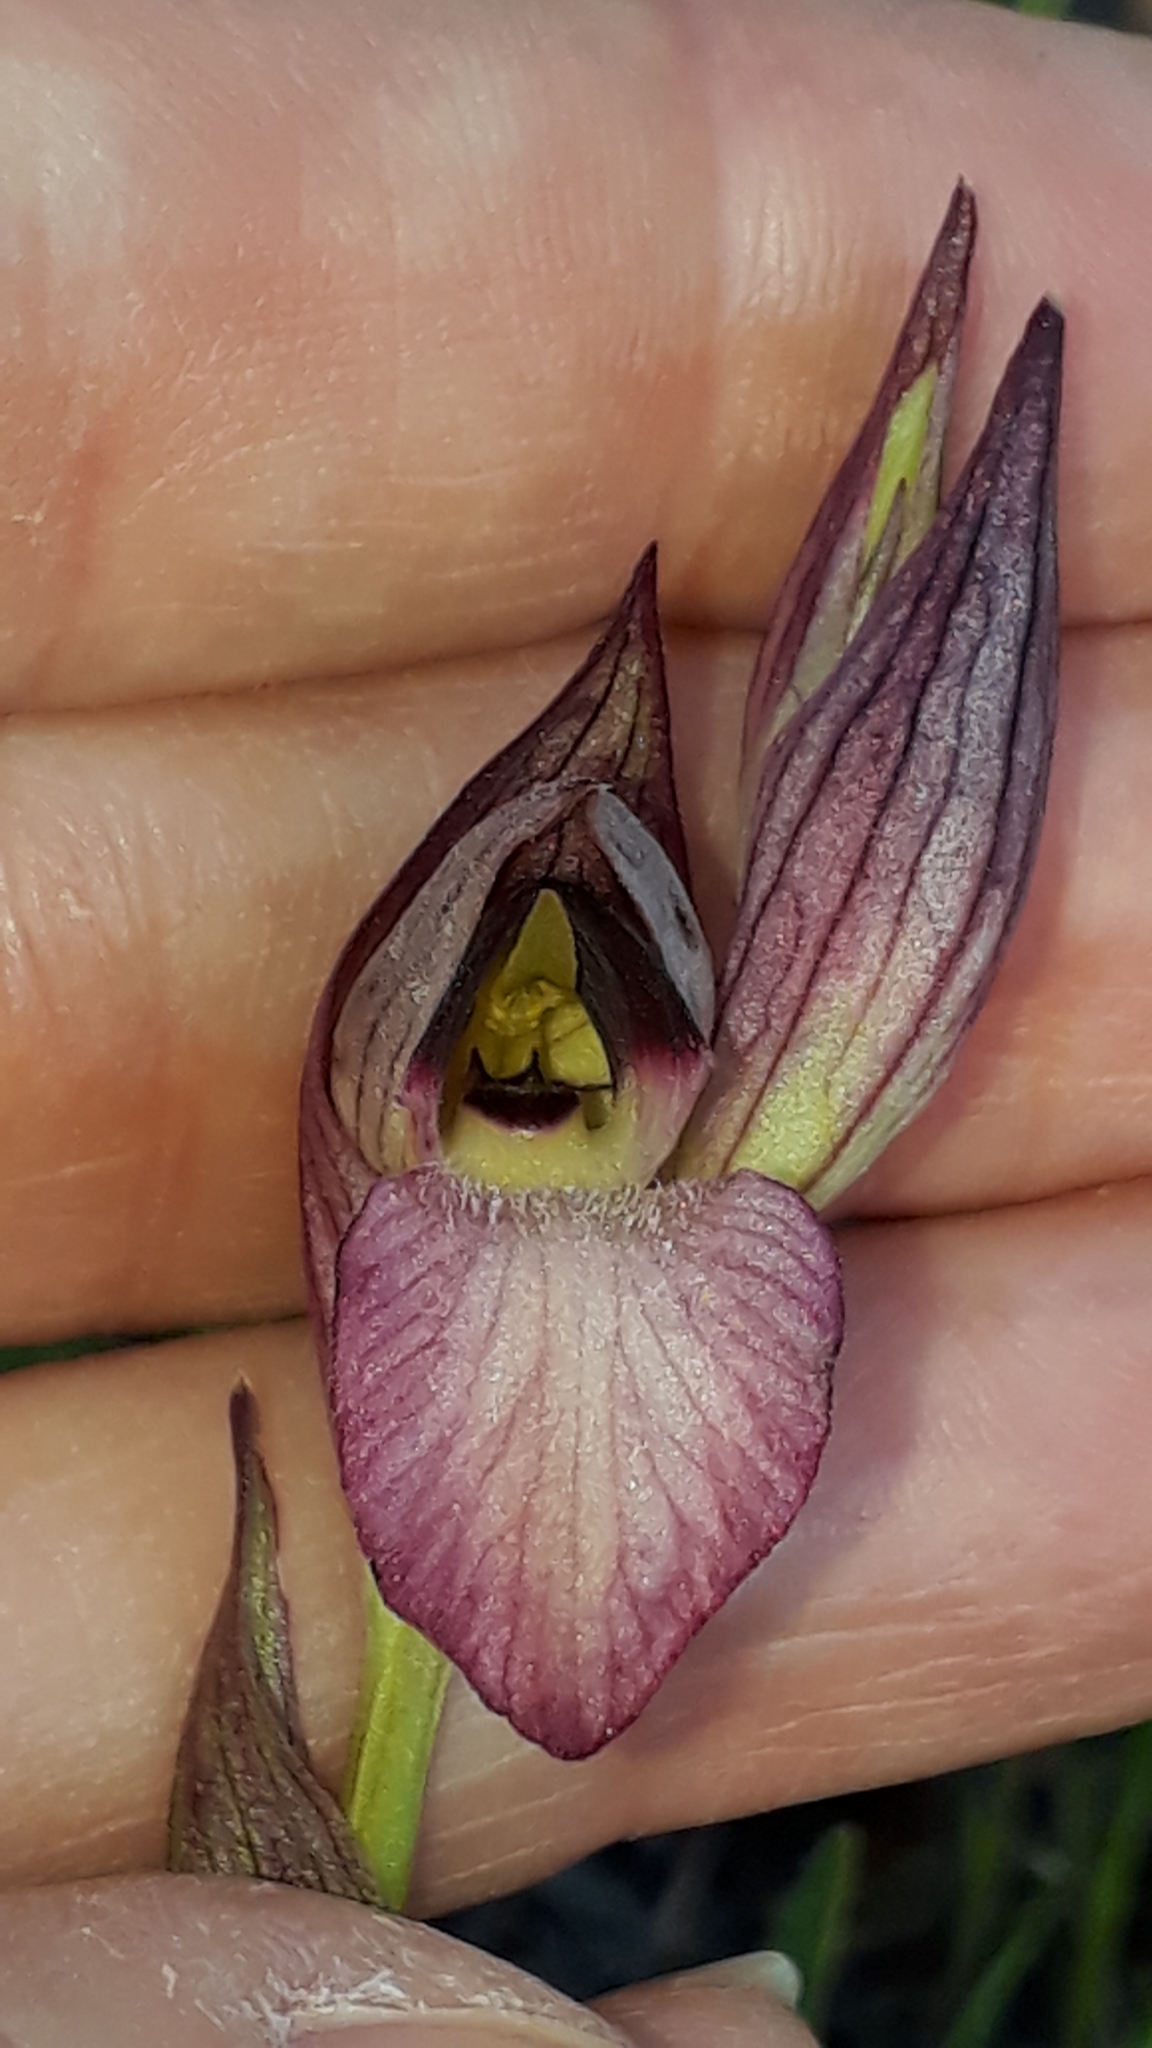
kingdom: Plantae
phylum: Tracheophyta
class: Liliopsida
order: Asparagales
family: Orchidaceae
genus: Serapias
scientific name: Serapias lingua
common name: Tongue-orchid
